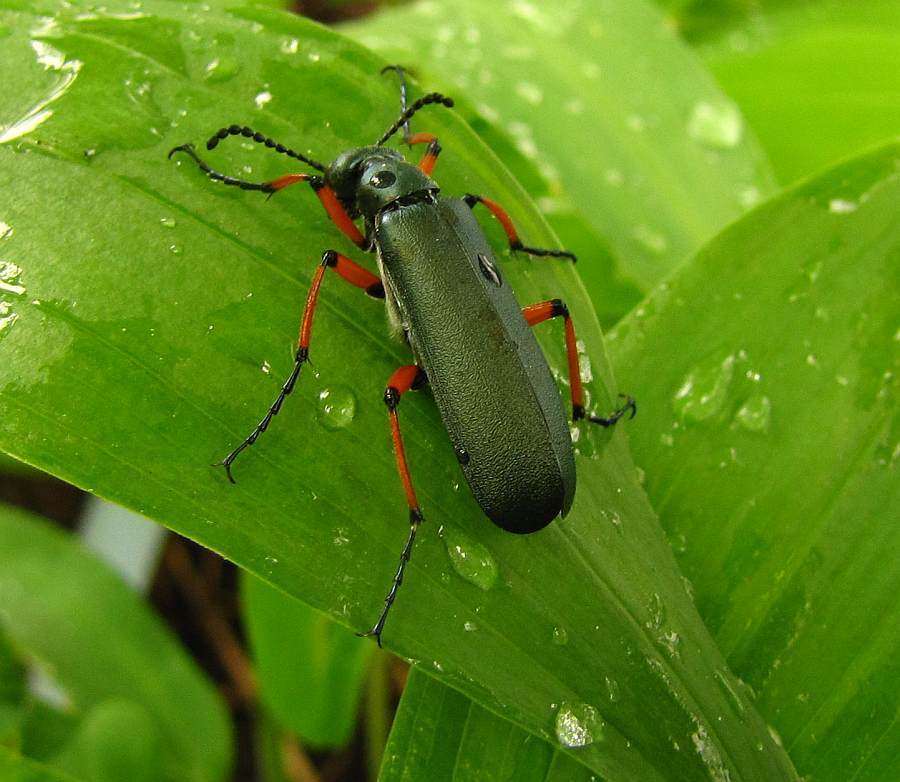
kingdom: Animalia
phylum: Arthropoda
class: Insecta
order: Coleoptera
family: Meloidae
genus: Lytta
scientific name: Lytta sayi
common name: Say's blister beetle
